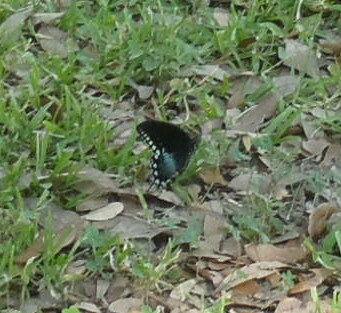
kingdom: Animalia
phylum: Arthropoda
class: Insecta
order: Lepidoptera
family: Papilionidae
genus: Papilio
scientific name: Papilio troilus
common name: Spicebush swallowtail
